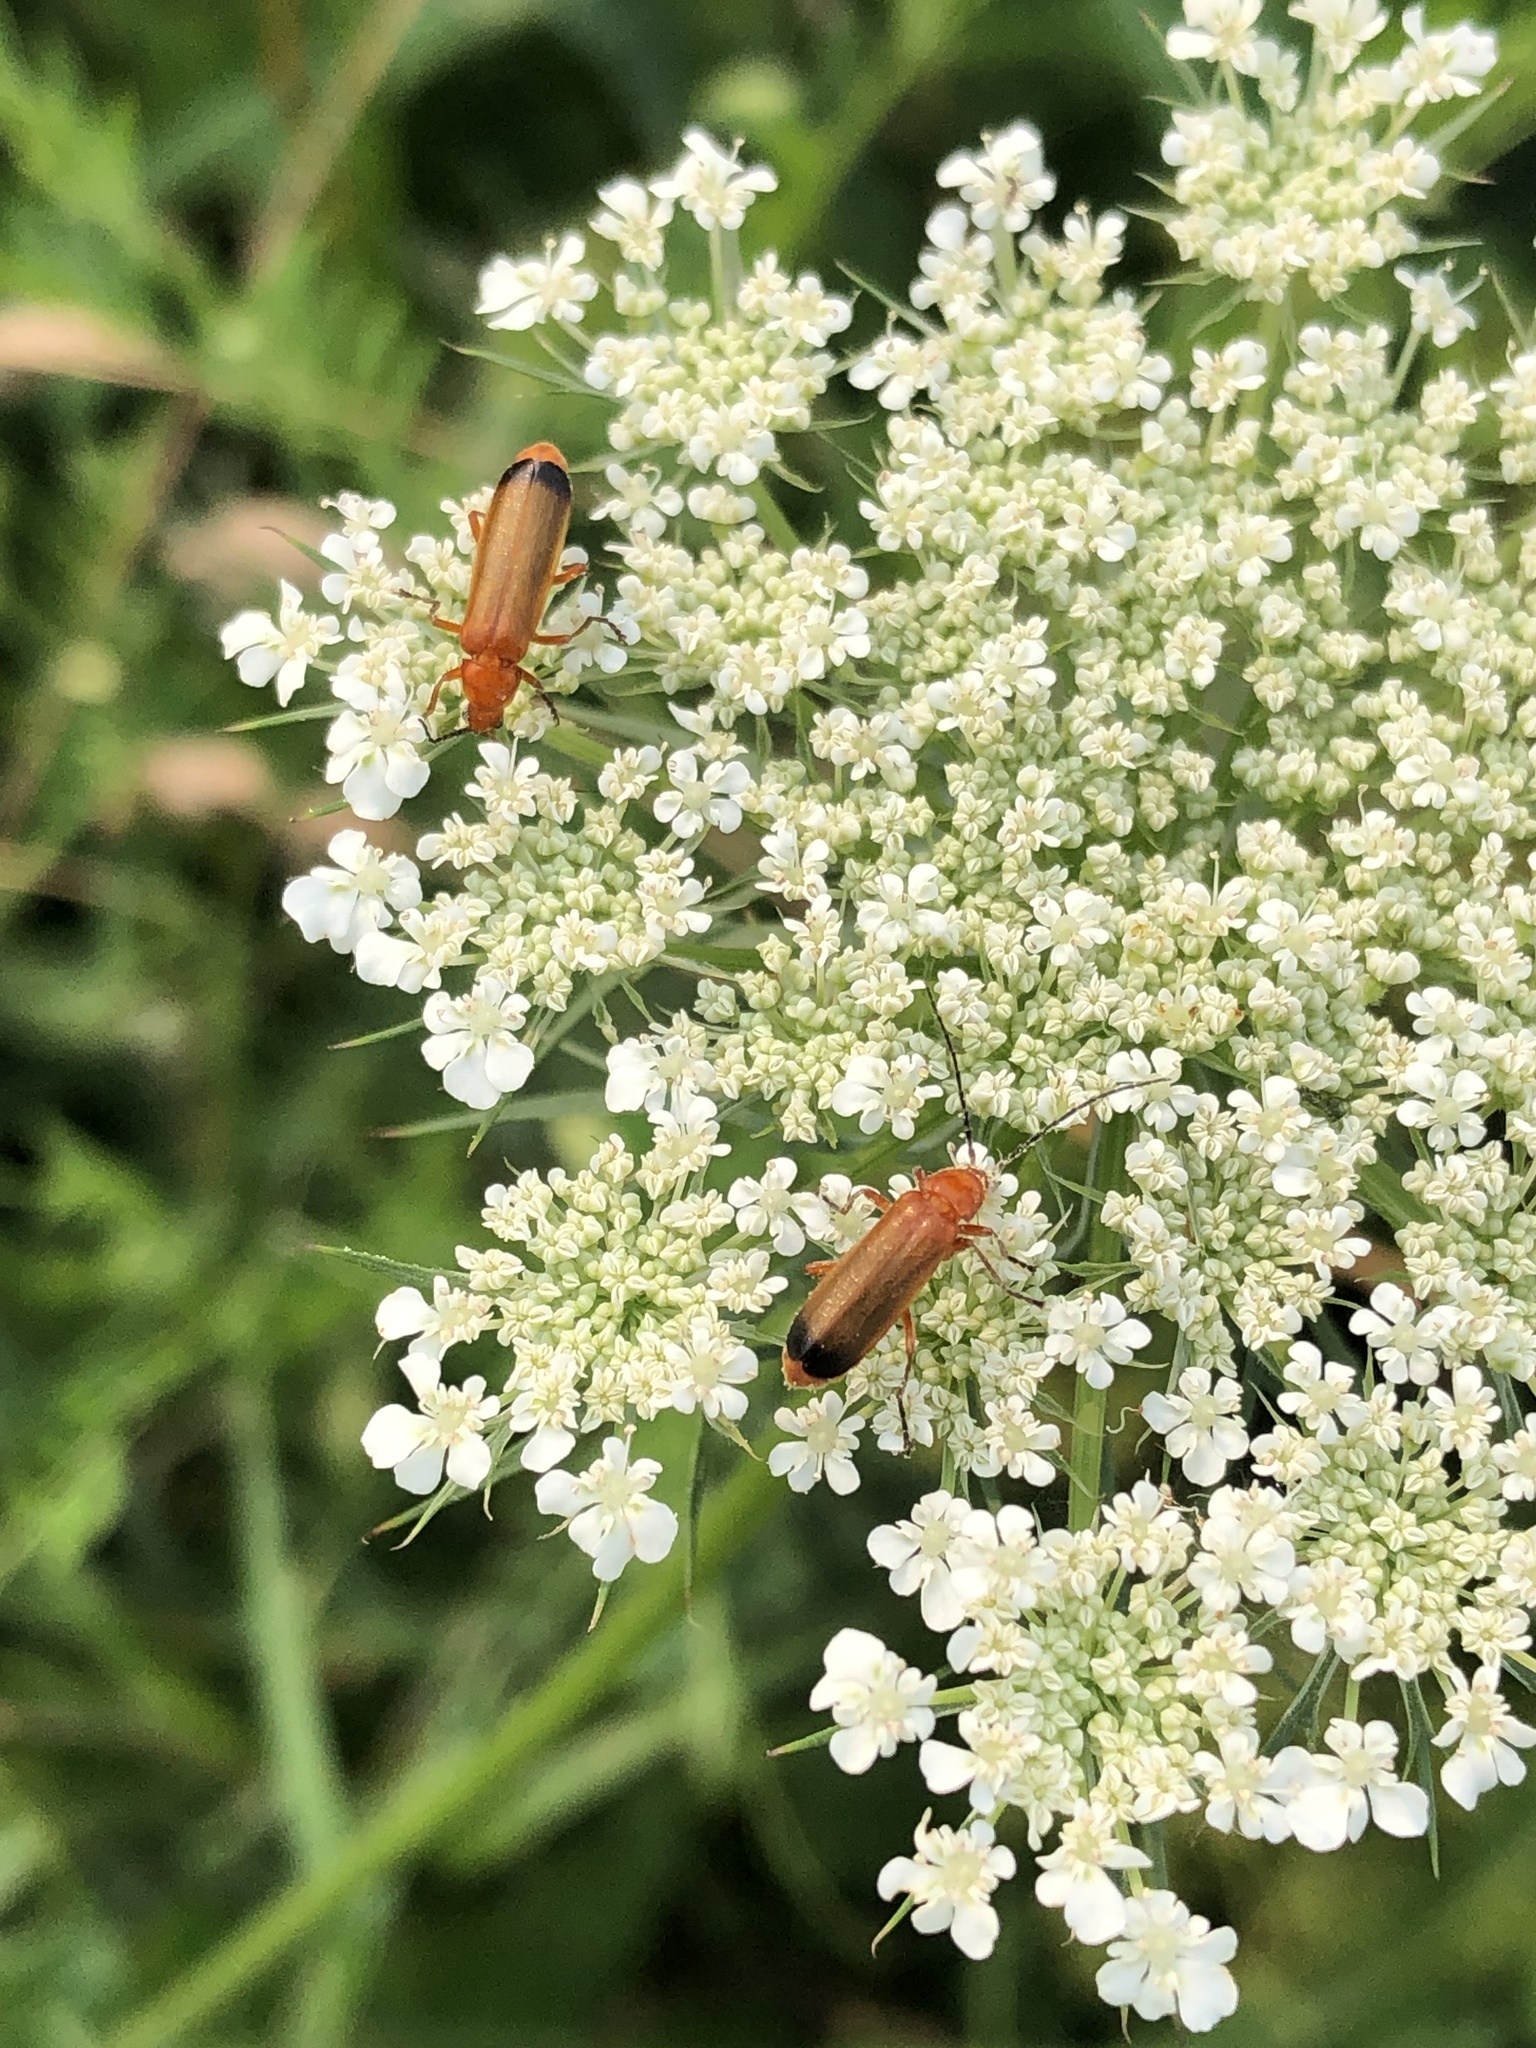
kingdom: Animalia
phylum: Arthropoda
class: Insecta
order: Coleoptera
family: Cantharidae
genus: Rhagonycha
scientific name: Rhagonycha fulva
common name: Common red soldier beetle
